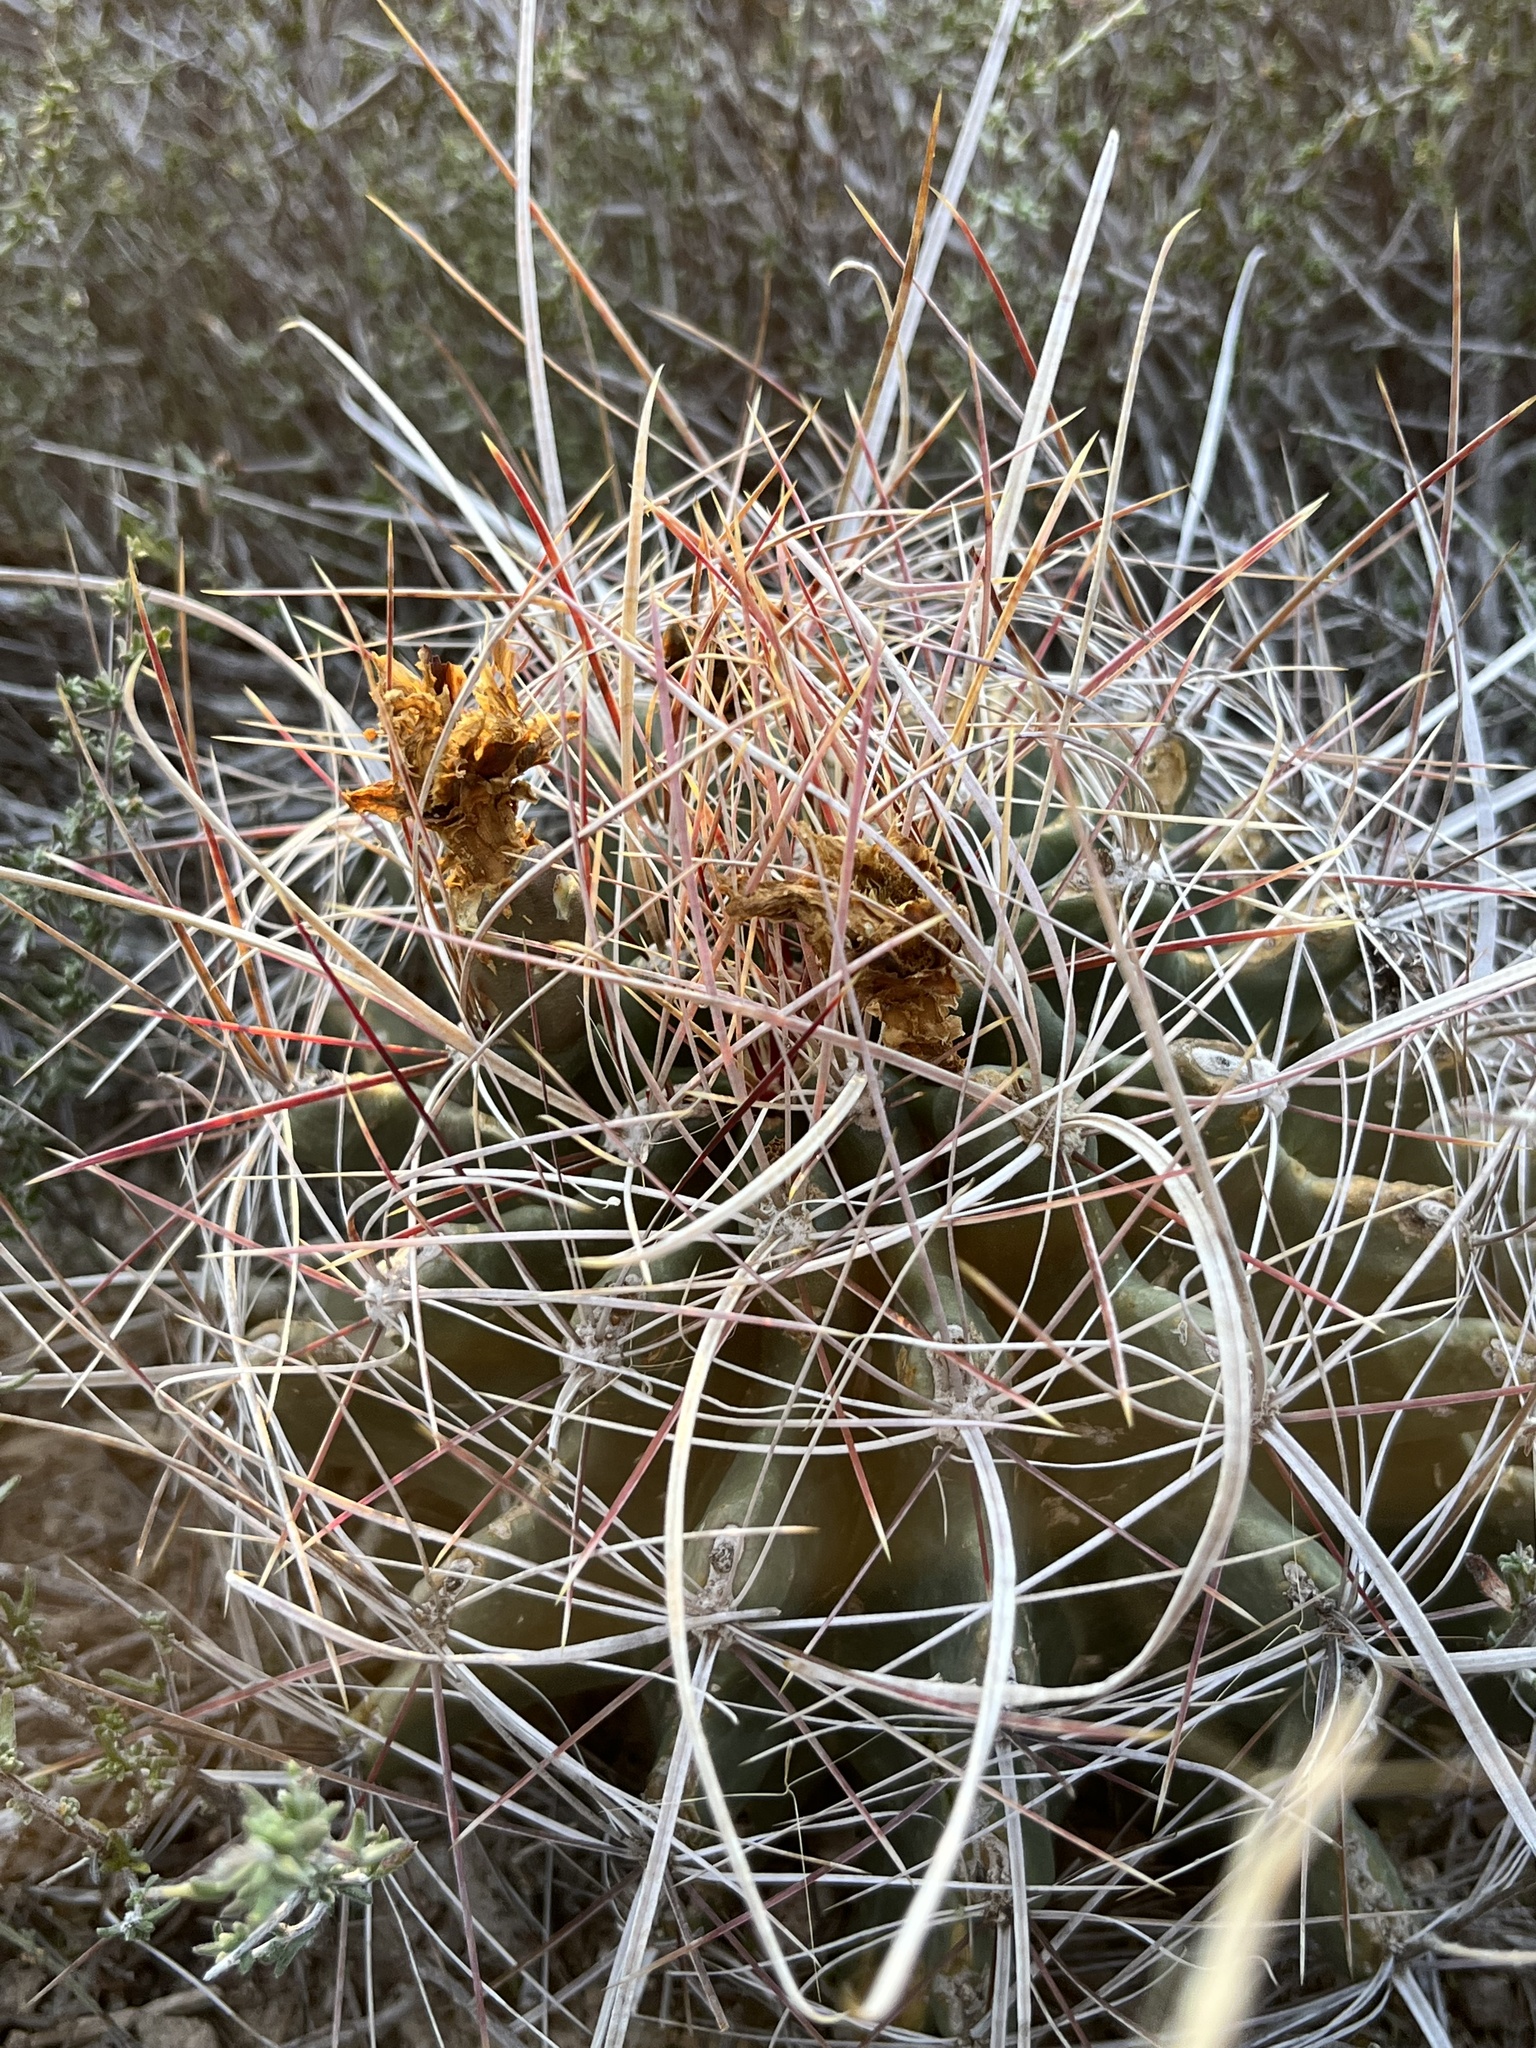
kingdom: Plantae
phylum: Tracheophyta
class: Magnoliopsida
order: Caryophyllales
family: Cactaceae
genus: Bisnaga
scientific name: Bisnaga hamatacantha
